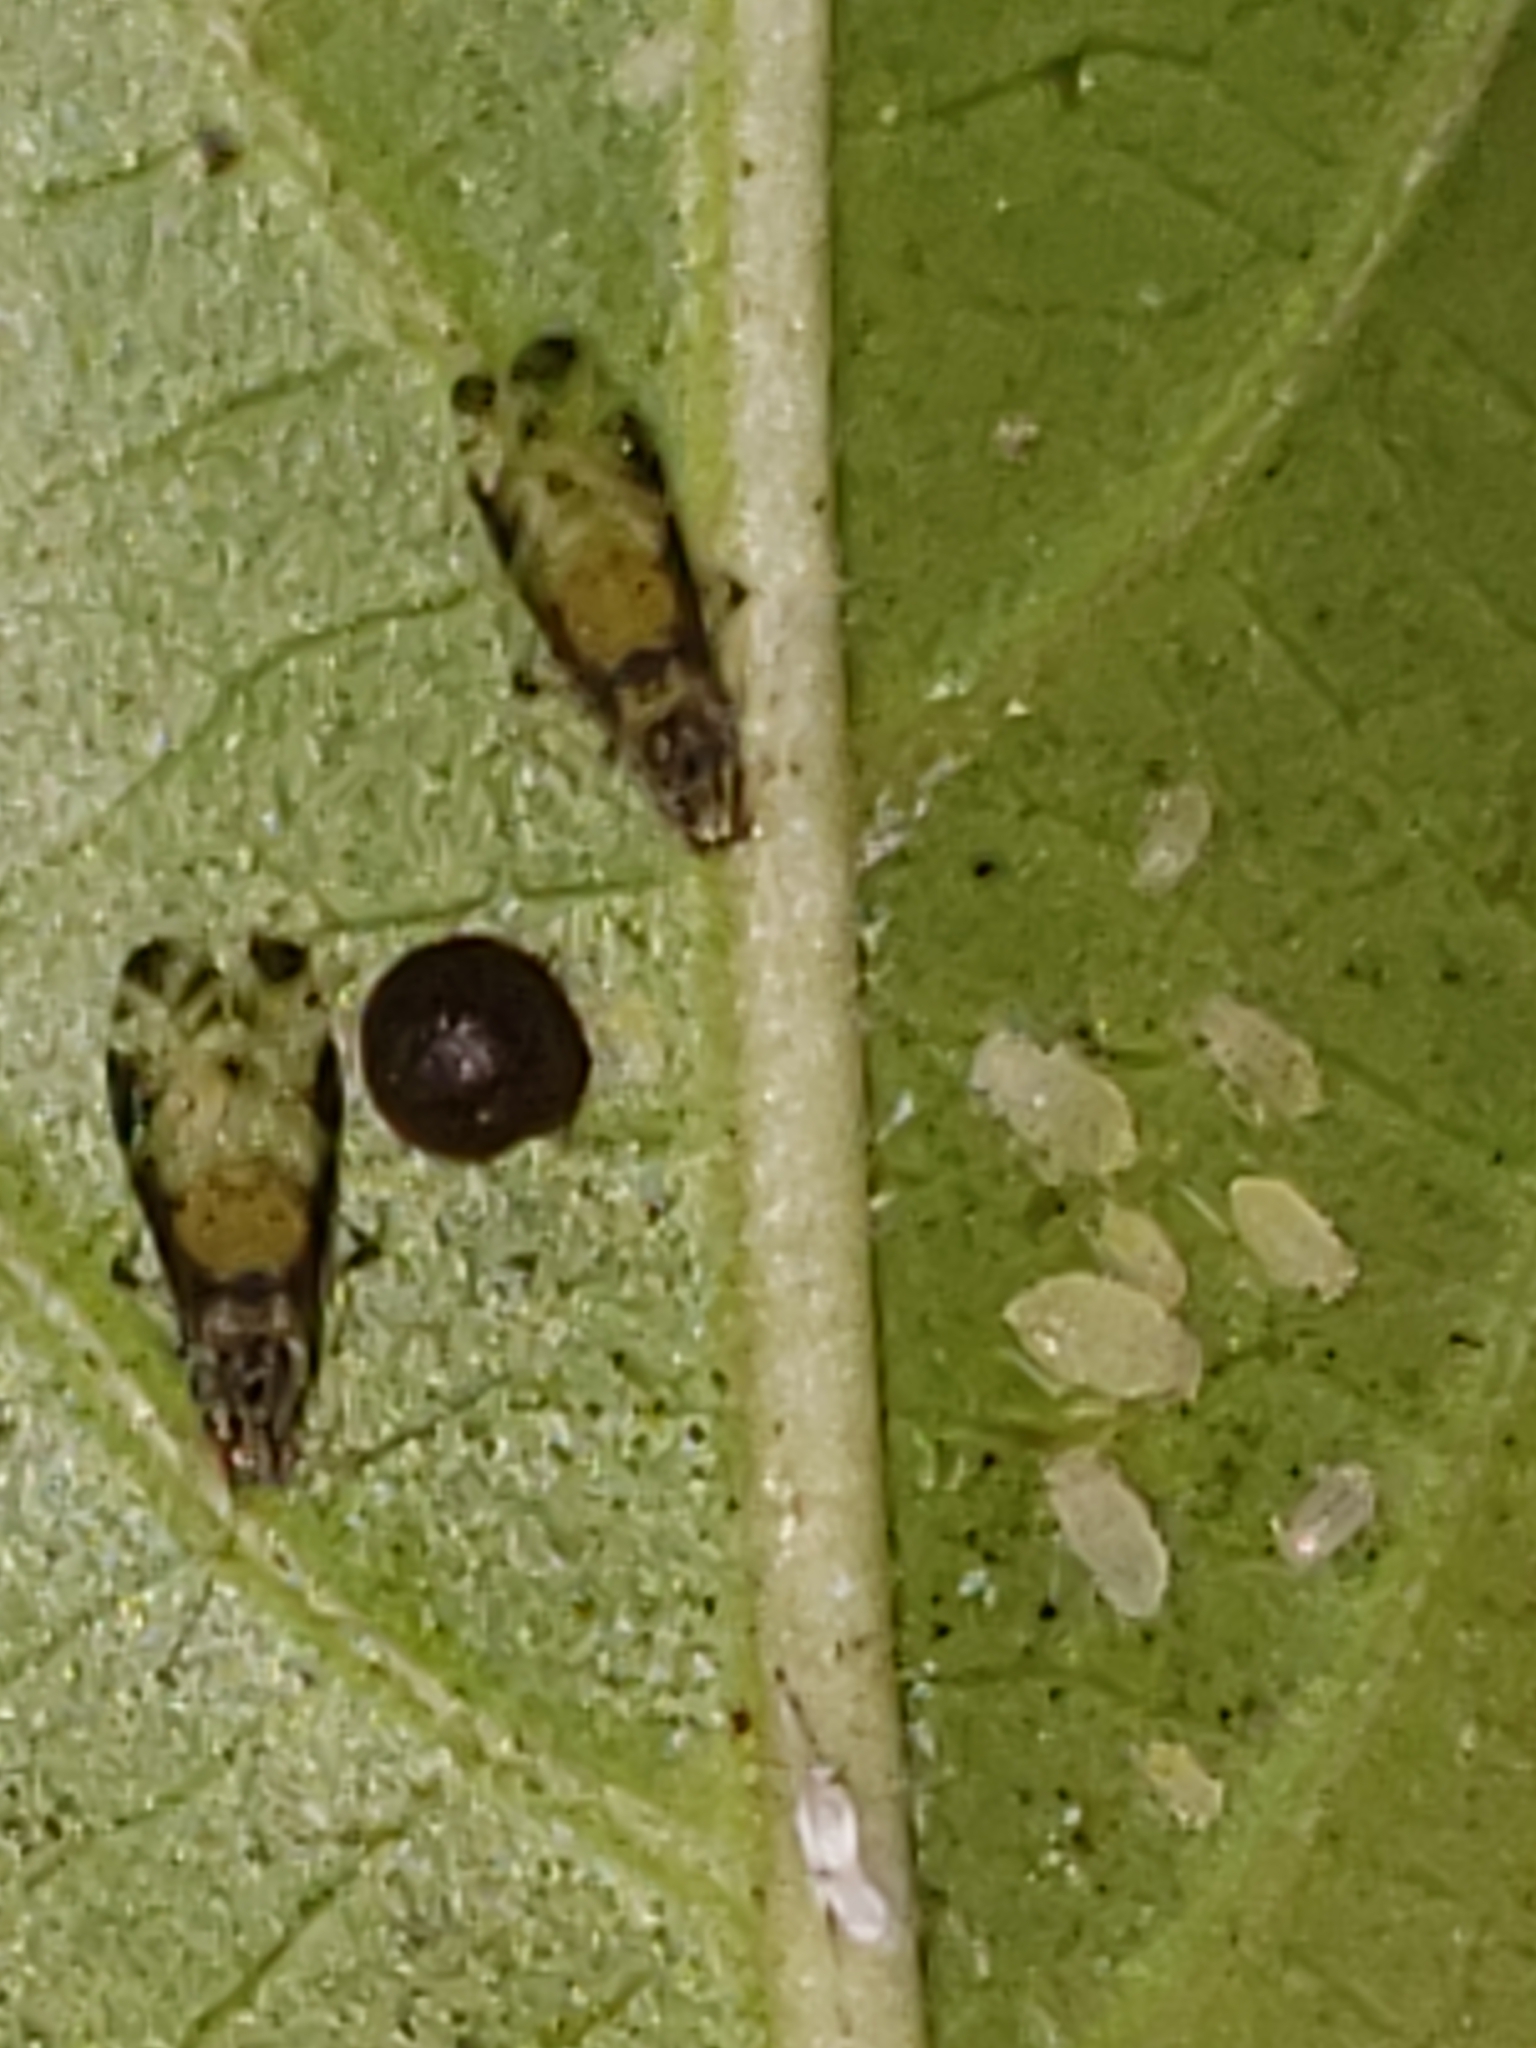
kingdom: Animalia
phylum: Arthropoda
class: Insecta
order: Hemiptera
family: Aphididae
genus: Sarucallis
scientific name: Sarucallis kahawaluokalani
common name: Crapemyrtle aphid
